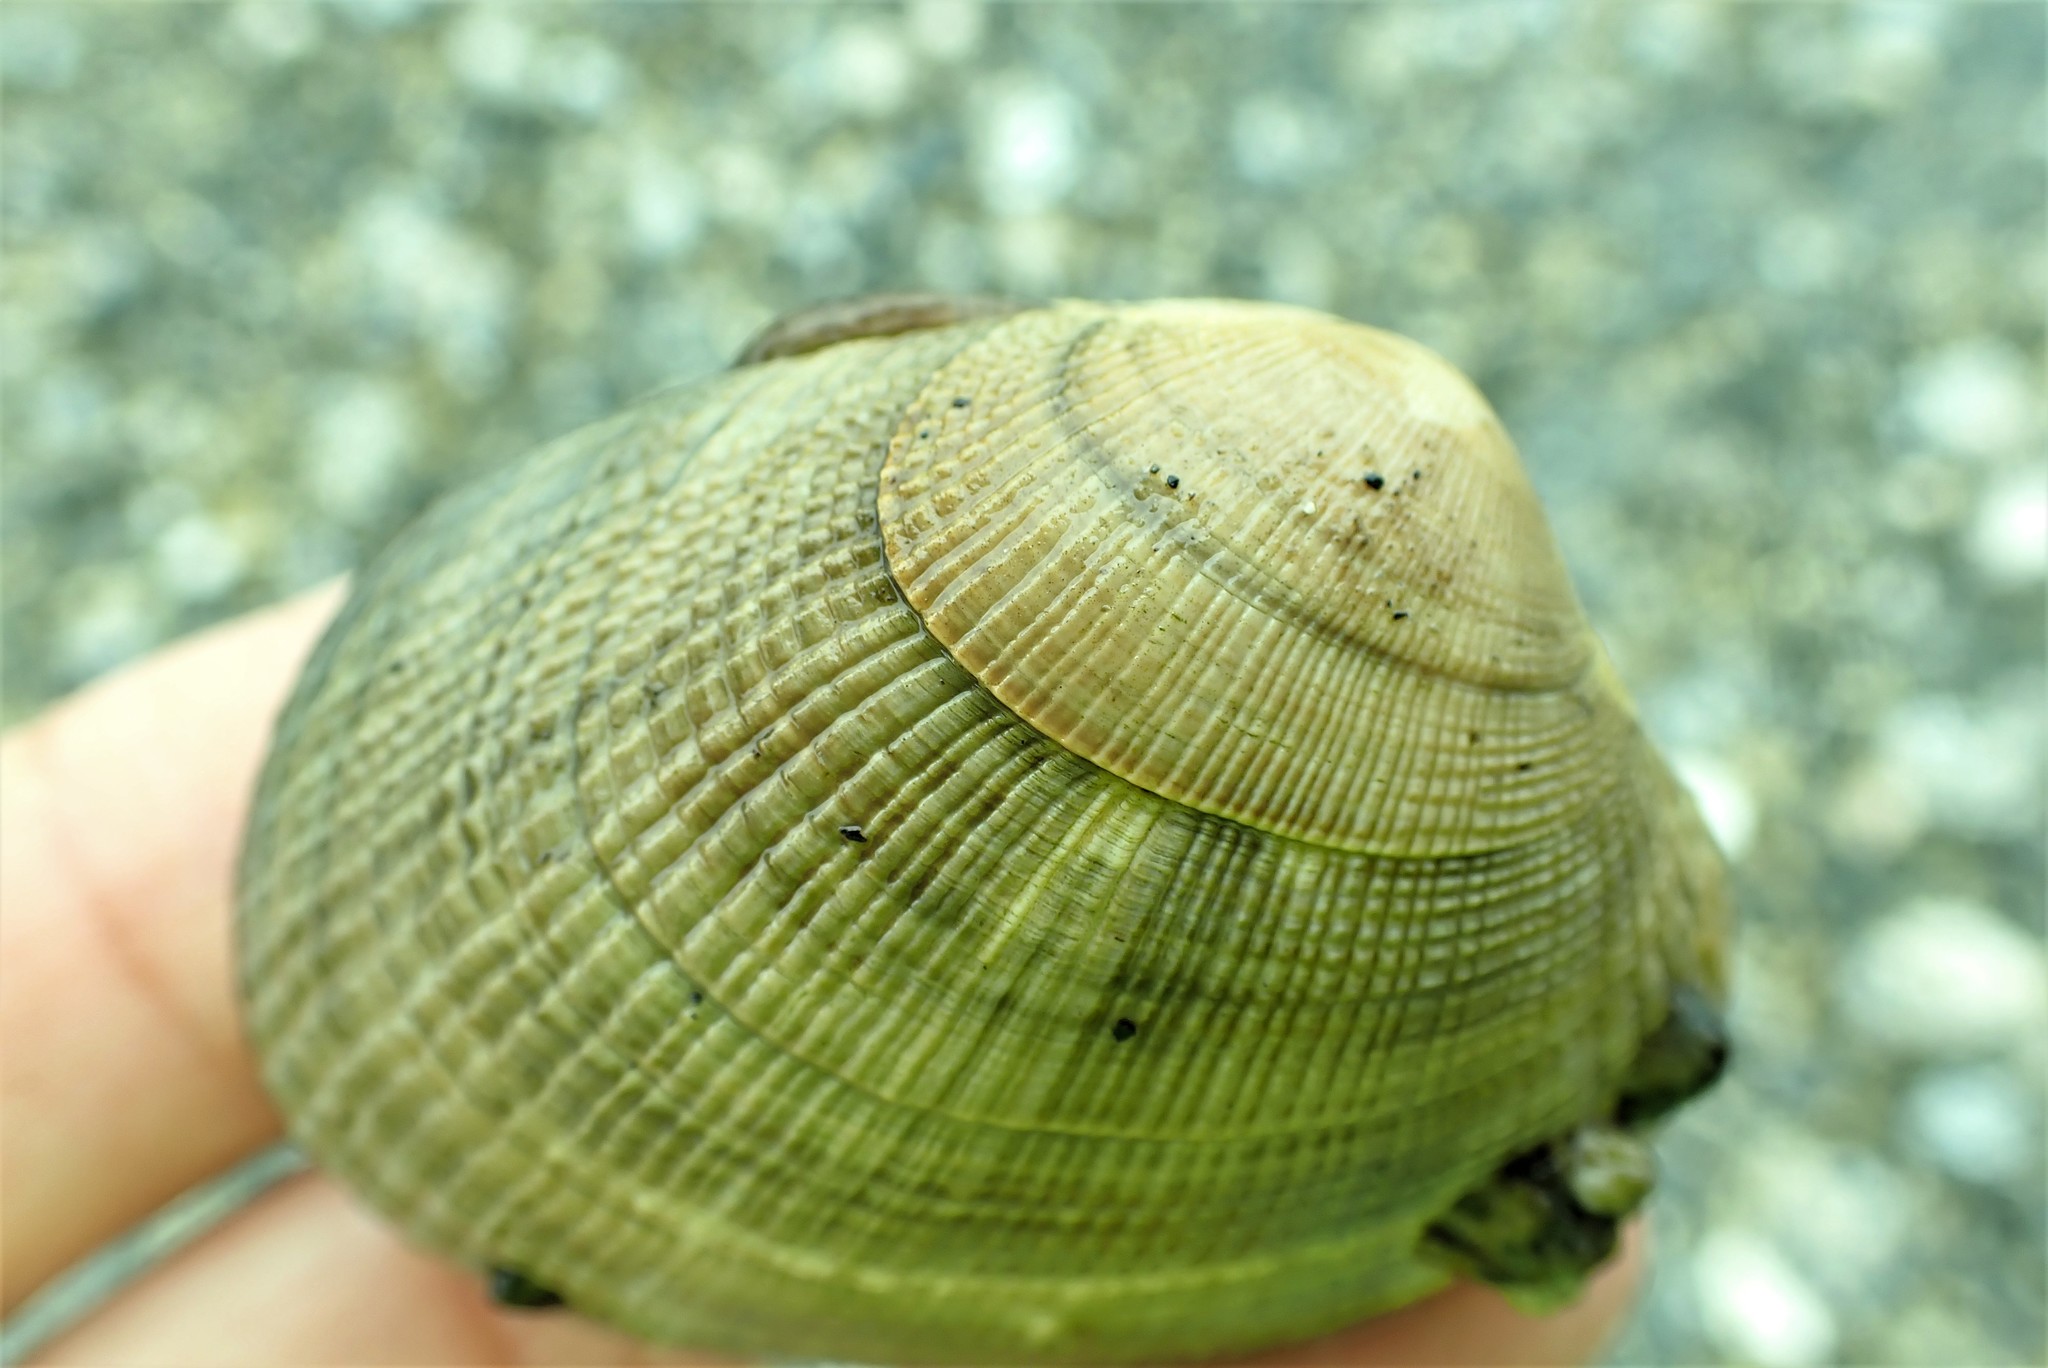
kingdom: Animalia
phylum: Mollusca
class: Bivalvia
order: Venerida
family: Veneridae
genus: Ruditapes
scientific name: Ruditapes philippinarum
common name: Manila clam
